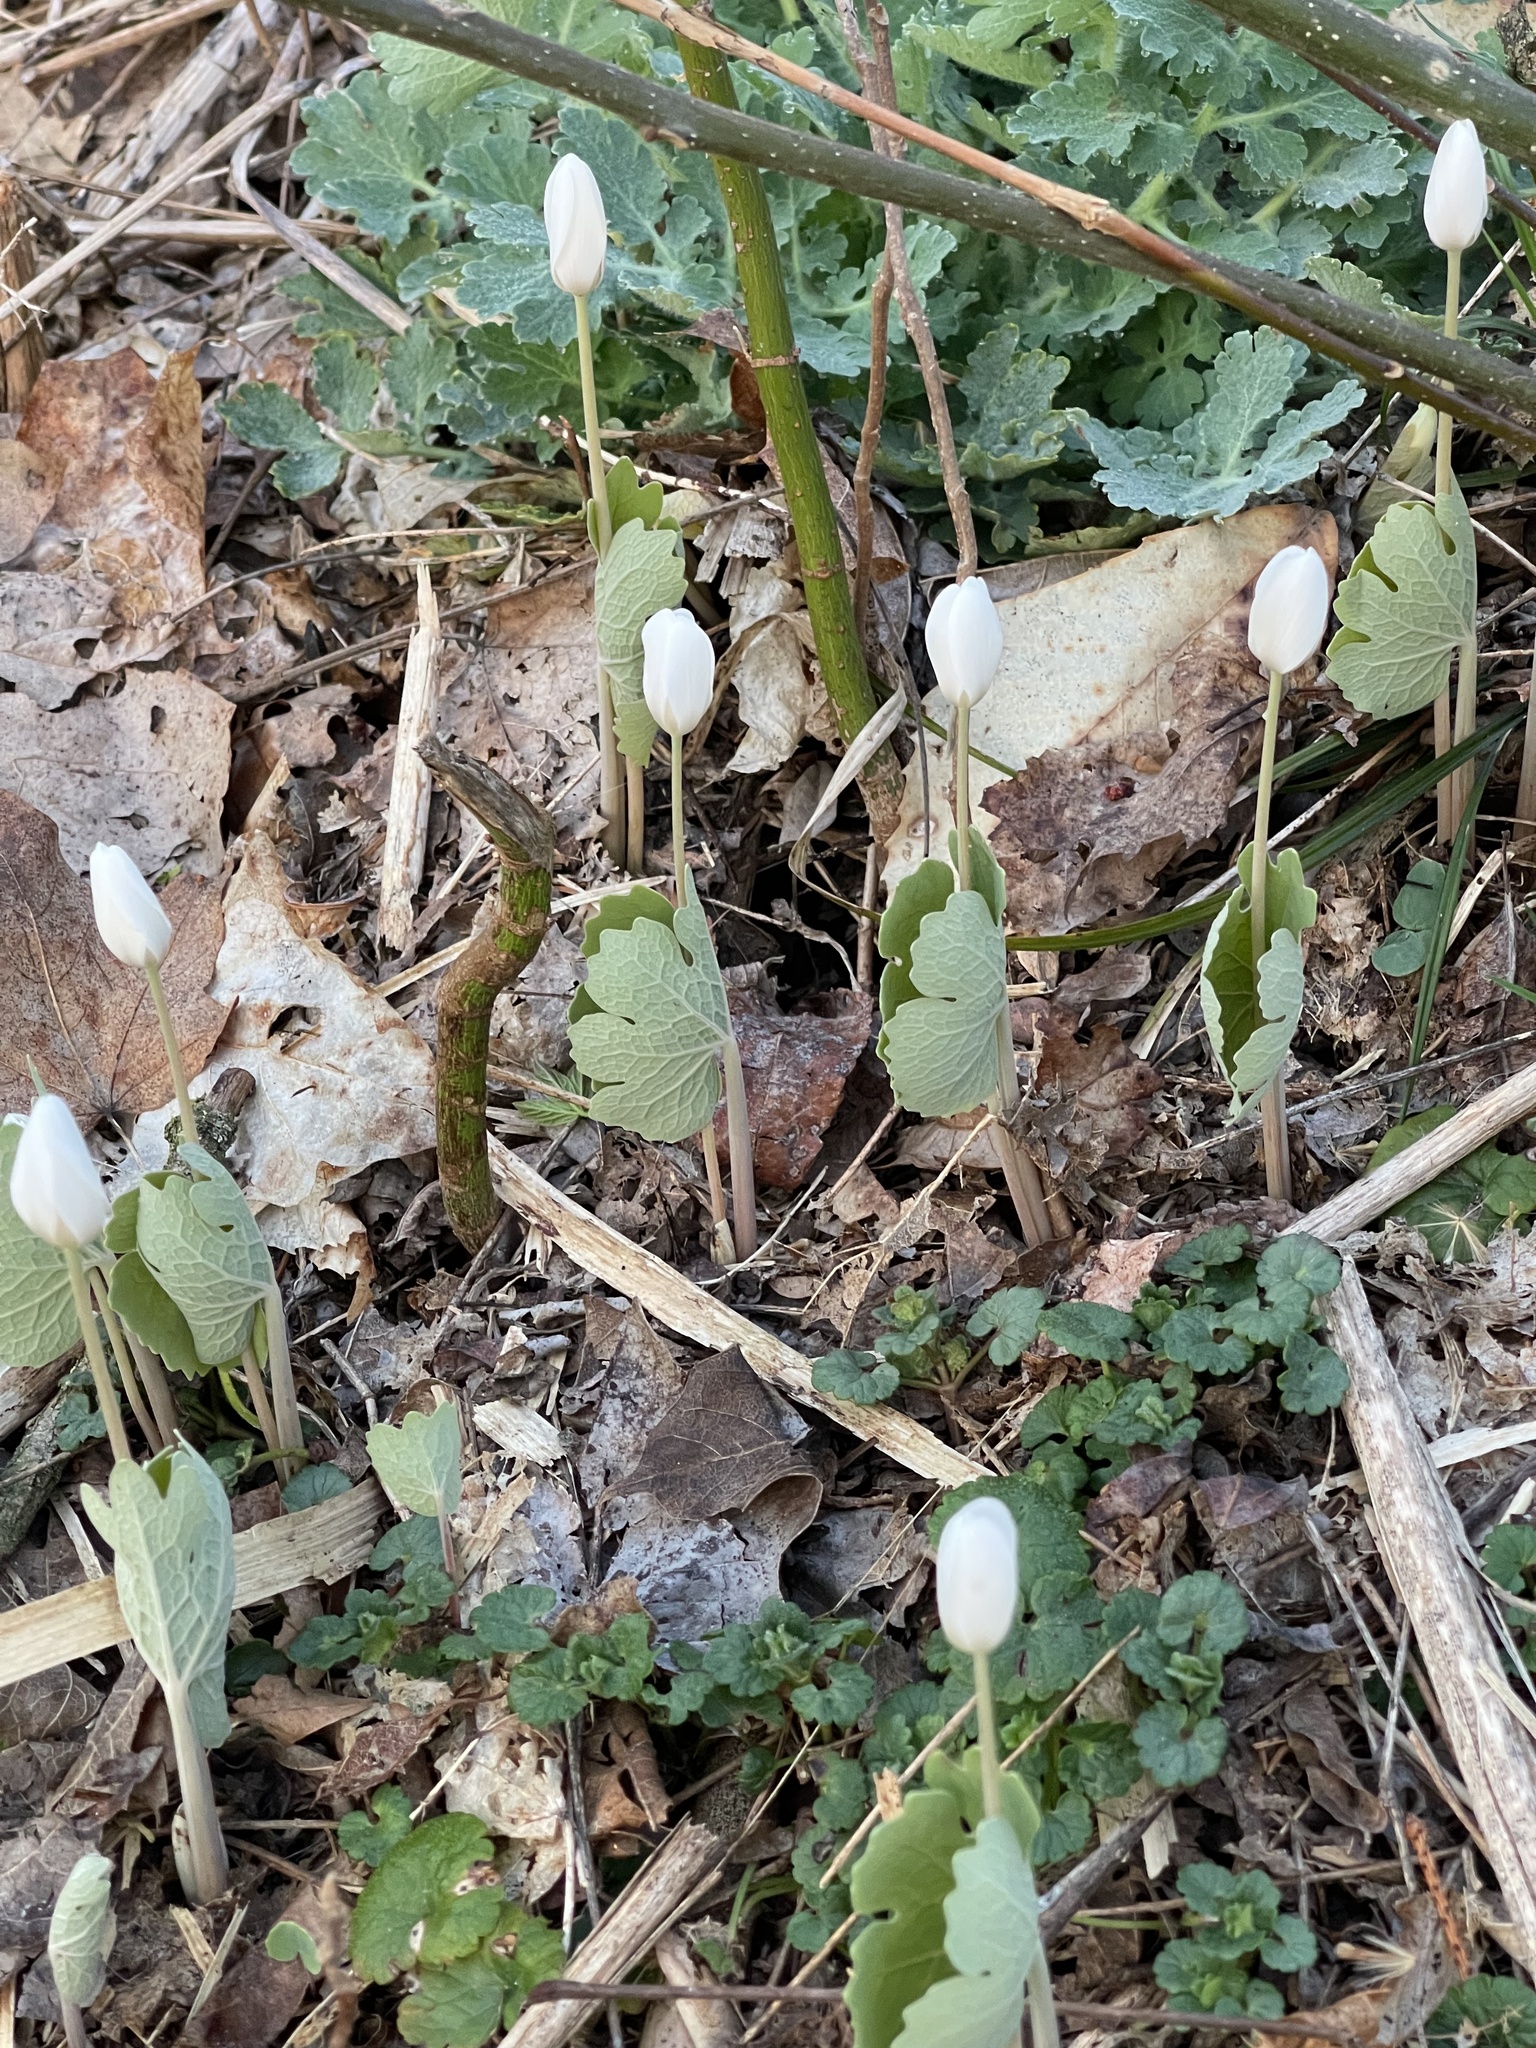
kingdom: Plantae
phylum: Tracheophyta
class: Magnoliopsida
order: Ranunculales
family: Papaveraceae
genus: Sanguinaria
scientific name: Sanguinaria canadensis
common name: Bloodroot
